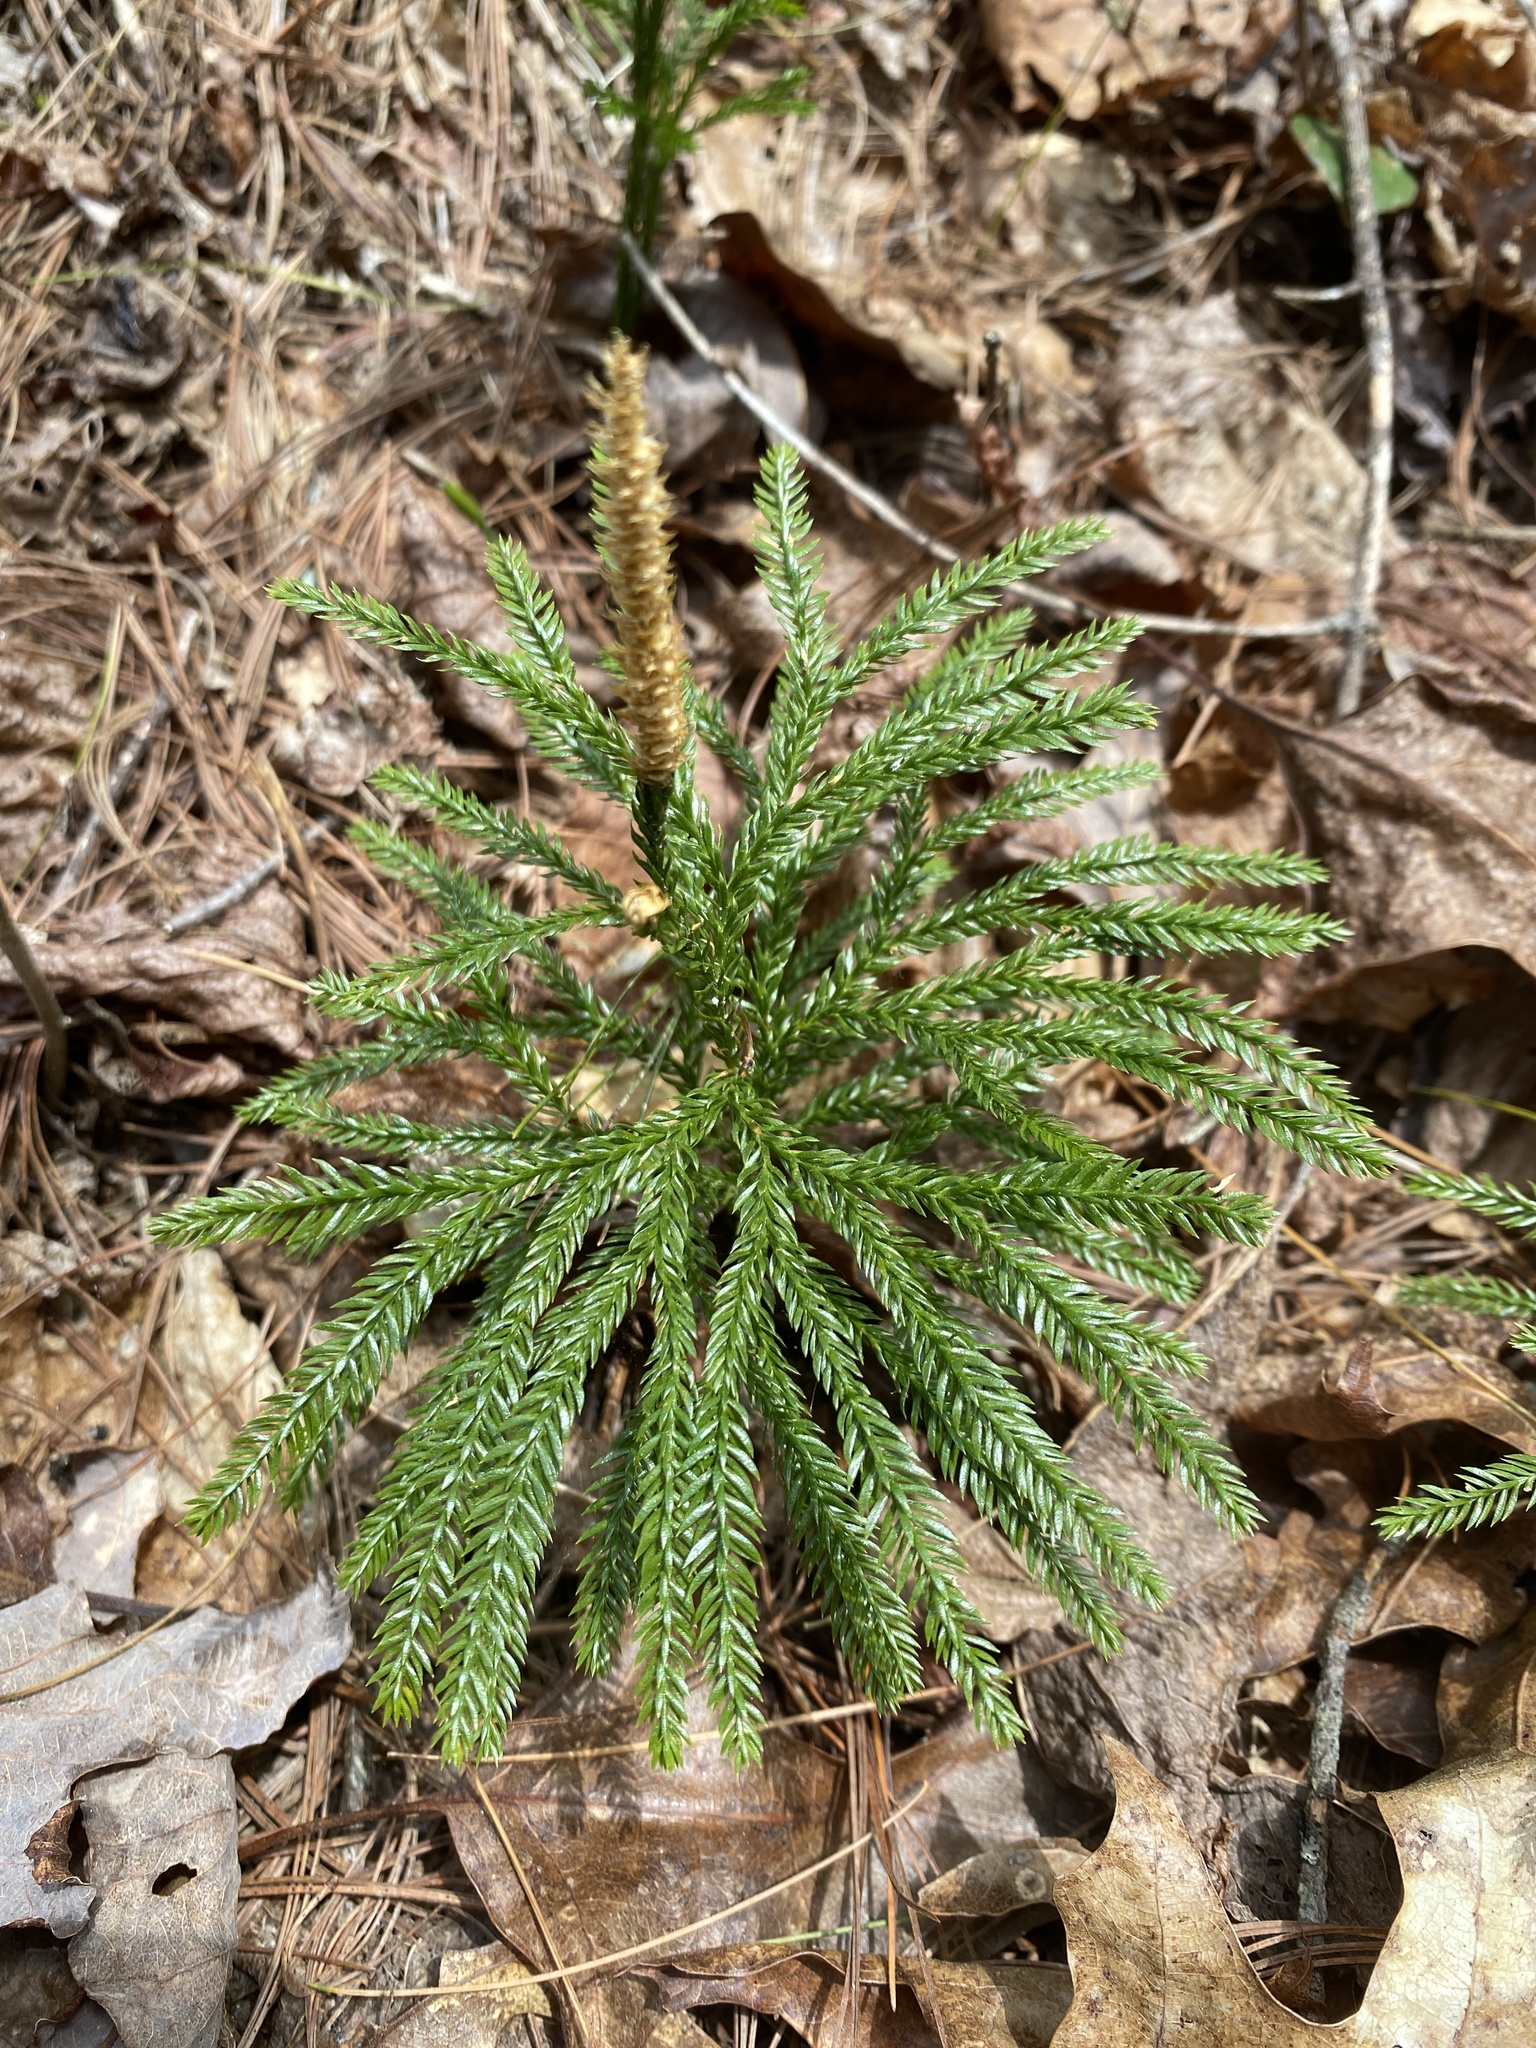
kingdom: Plantae
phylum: Tracheophyta
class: Lycopodiopsida
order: Lycopodiales
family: Lycopodiaceae
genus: Dendrolycopodium
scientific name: Dendrolycopodium obscurum
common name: Common ground-pine
